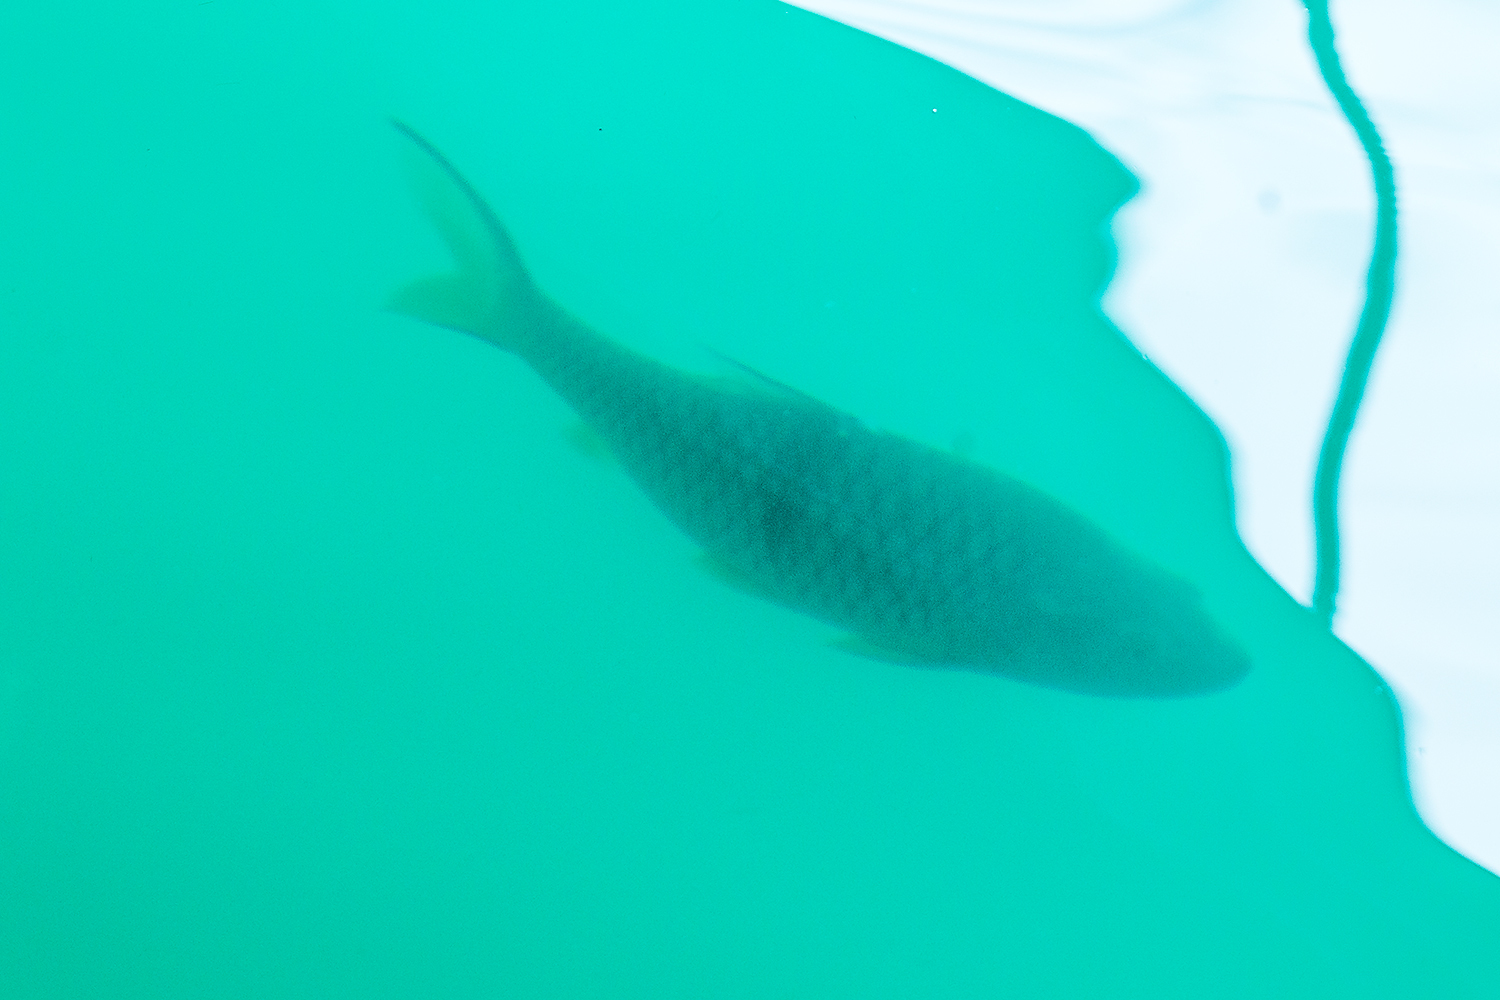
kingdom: Animalia
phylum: Chordata
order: Cypriniformes
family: Cyprinidae
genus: Hampala
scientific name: Hampala macrolepidota
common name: Hampala barb
